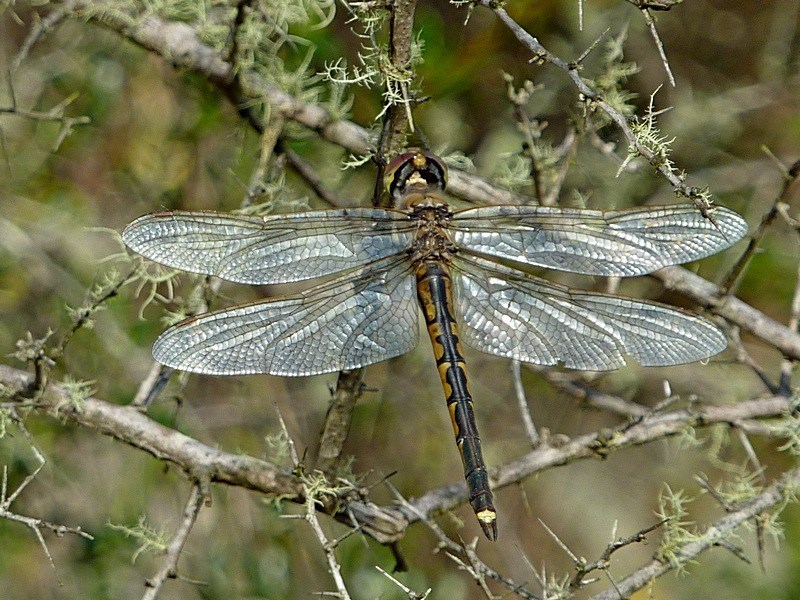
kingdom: Animalia
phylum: Arthropoda
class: Insecta
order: Odonata
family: Corduliidae
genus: Hemicordulia
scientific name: Hemicordulia tau
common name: Tau emerald
